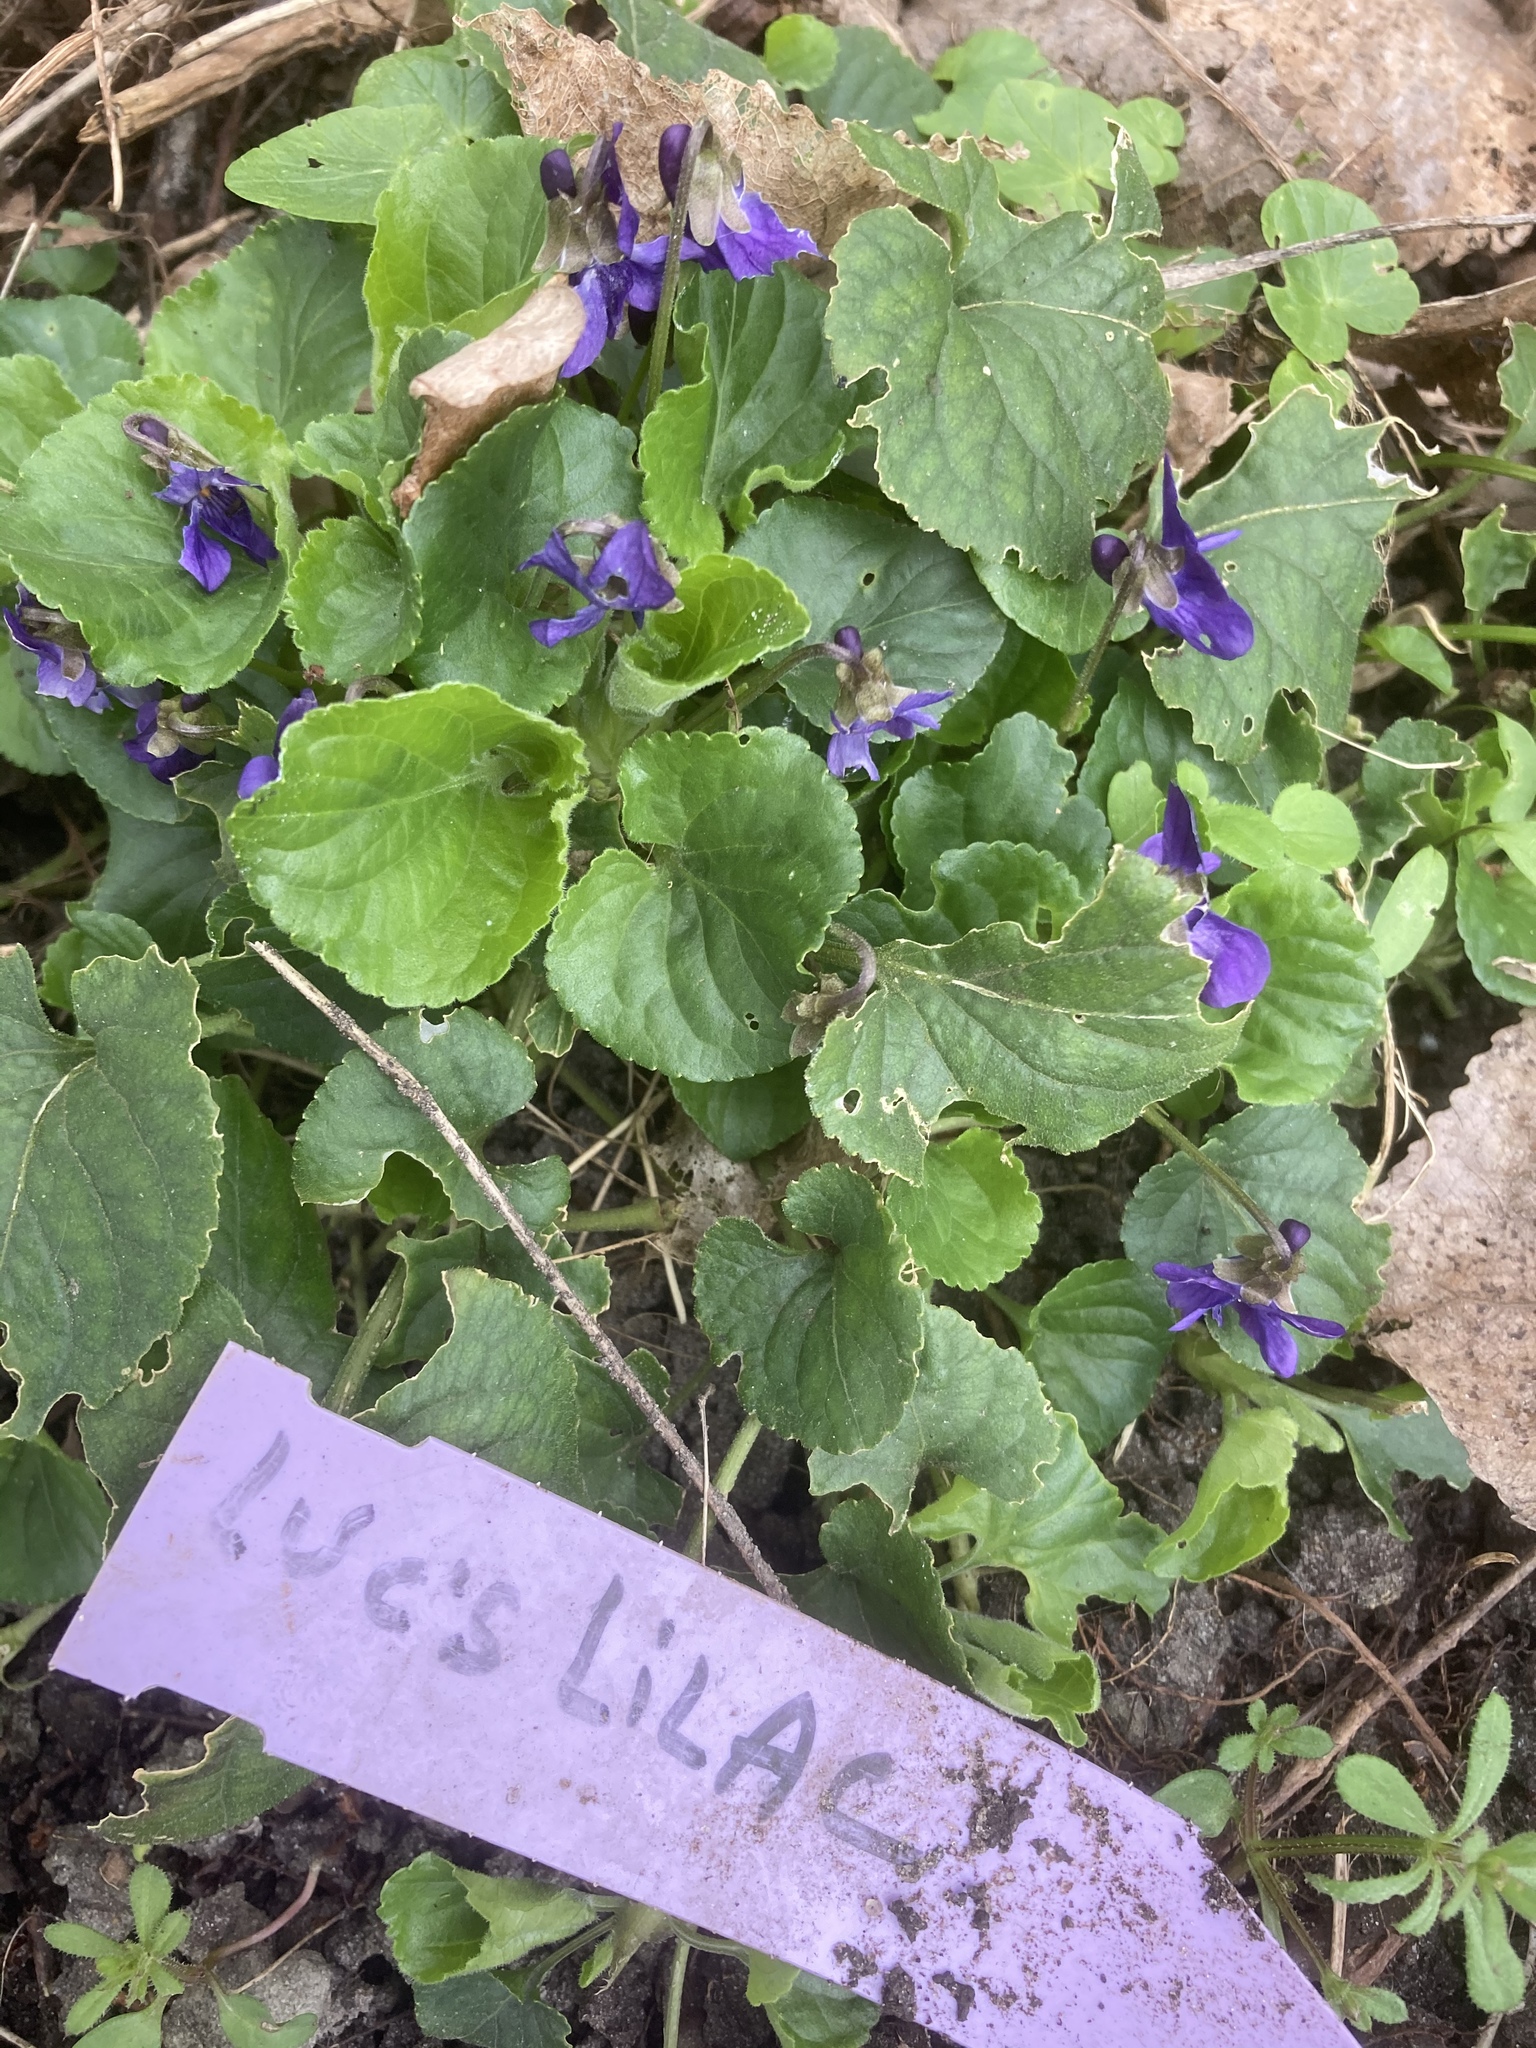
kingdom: Plantae
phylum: Tracheophyta
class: Magnoliopsida
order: Malpighiales
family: Violaceae
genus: Viola
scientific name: Viola odorata
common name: Sweet violet
